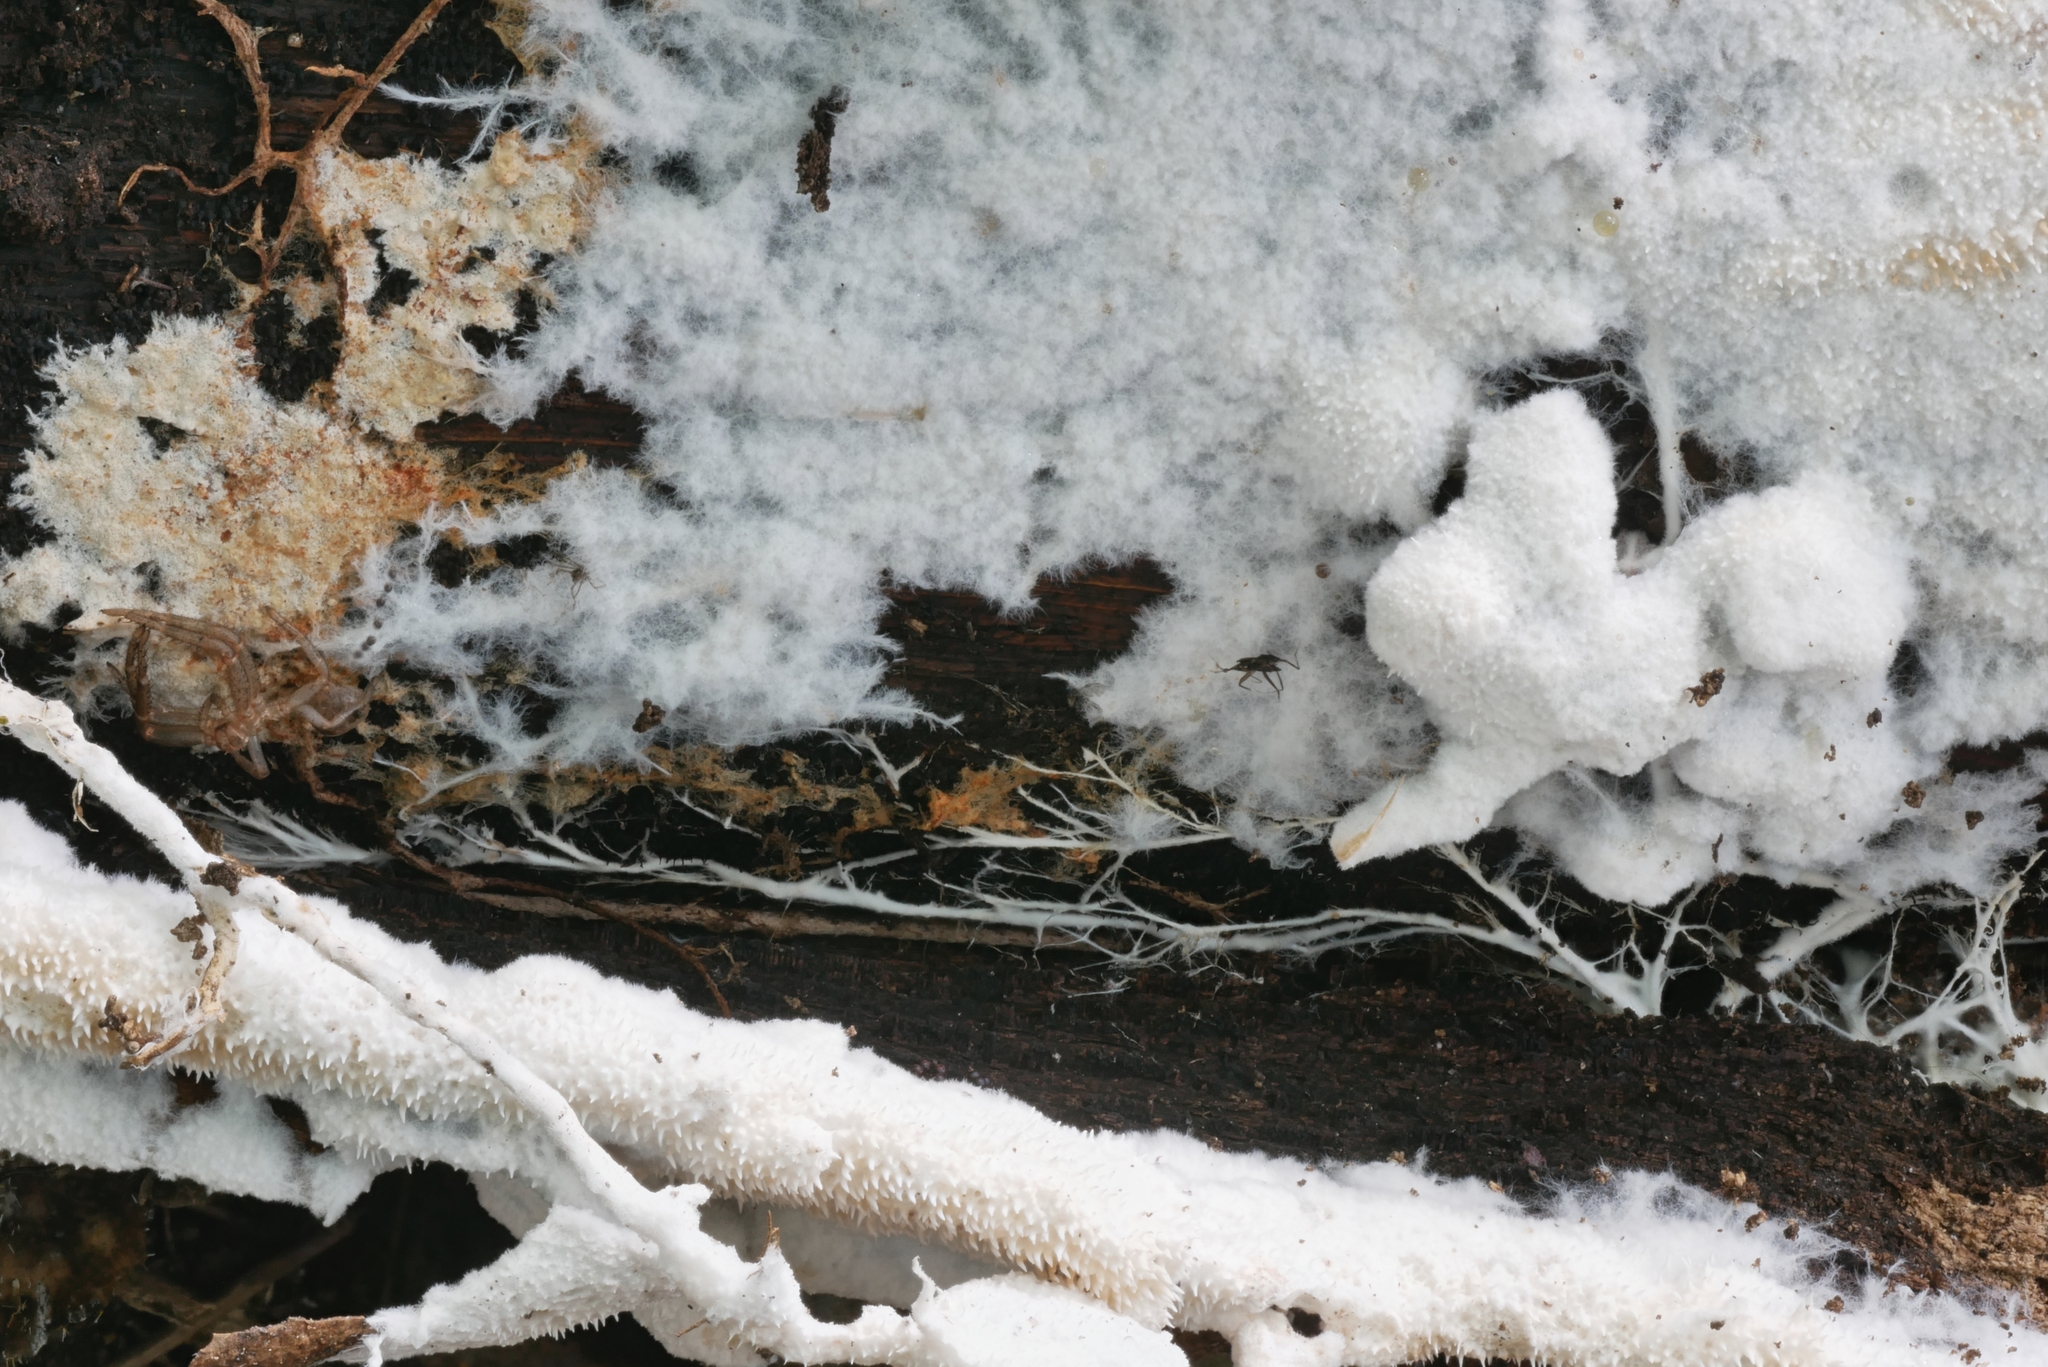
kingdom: Fungi
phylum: Basidiomycota
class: Agaricomycetes
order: Gomphales
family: Lentariaceae
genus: Hydnocristella
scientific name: Hydnocristella himantia
